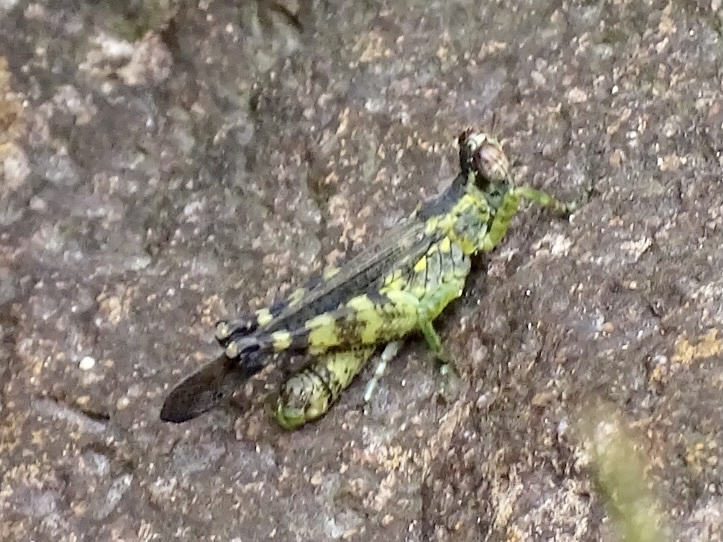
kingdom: Animalia
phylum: Arthropoda
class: Insecta
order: Orthoptera
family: Chorotypidae
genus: China
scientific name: China mantispoides
